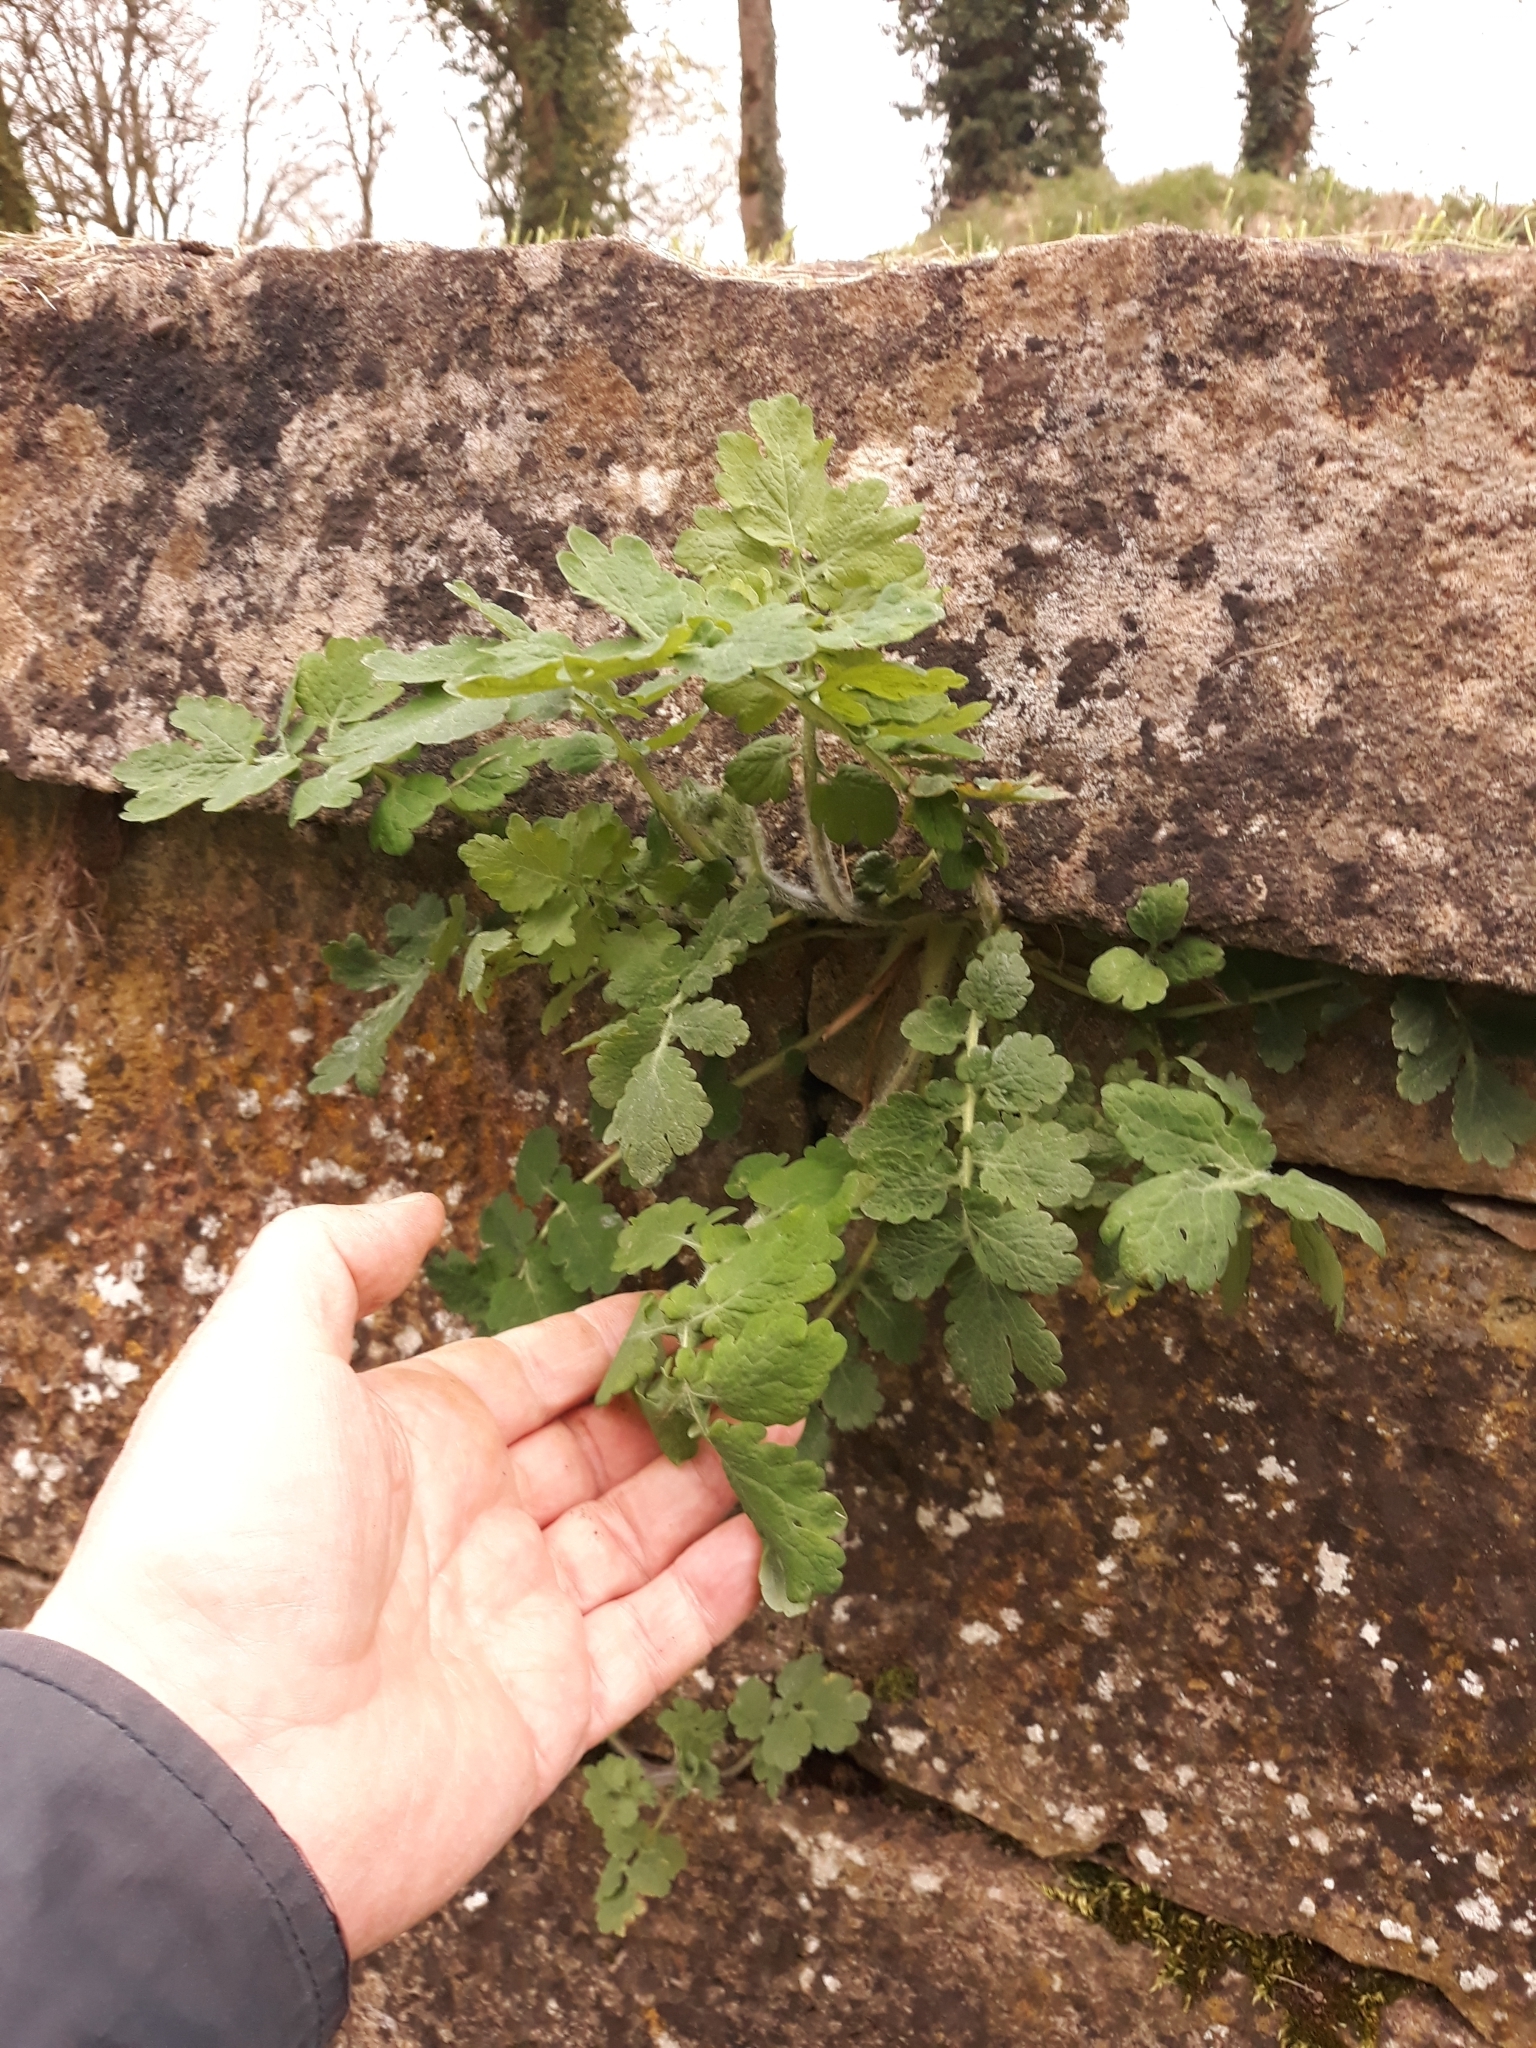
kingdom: Plantae
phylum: Tracheophyta
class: Magnoliopsida
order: Ranunculales
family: Papaveraceae
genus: Chelidonium
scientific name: Chelidonium majus
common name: Greater celandine
